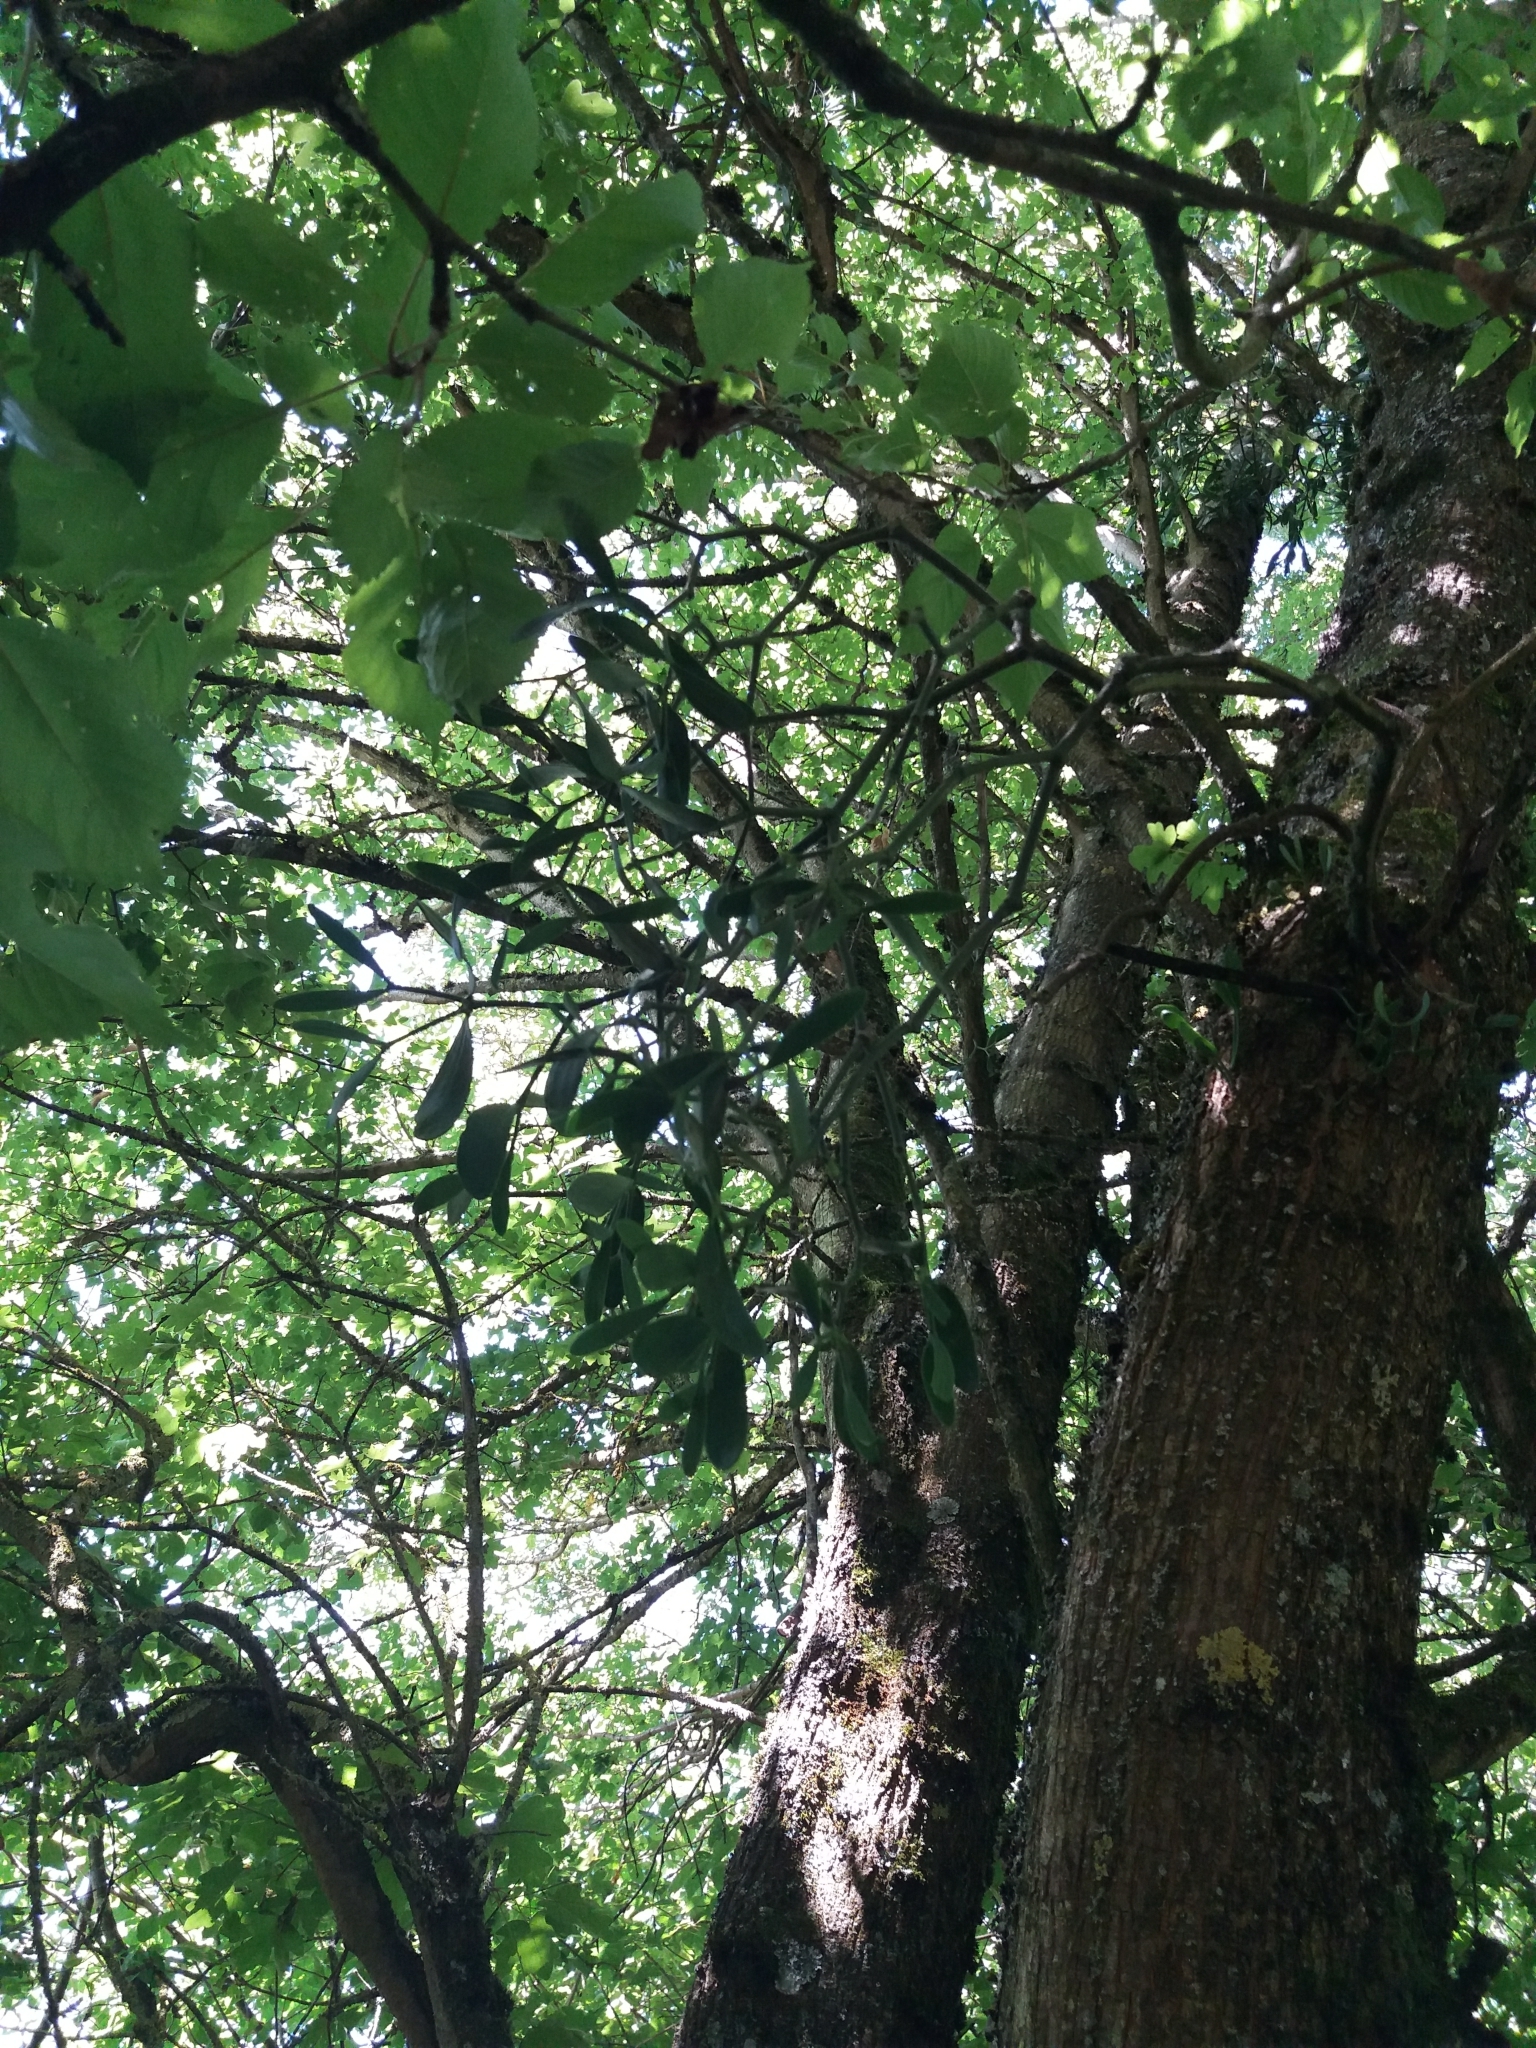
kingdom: Plantae
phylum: Tracheophyta
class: Magnoliopsida
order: Santalales
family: Viscaceae
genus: Viscum
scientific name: Viscum album
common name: Mistletoe
